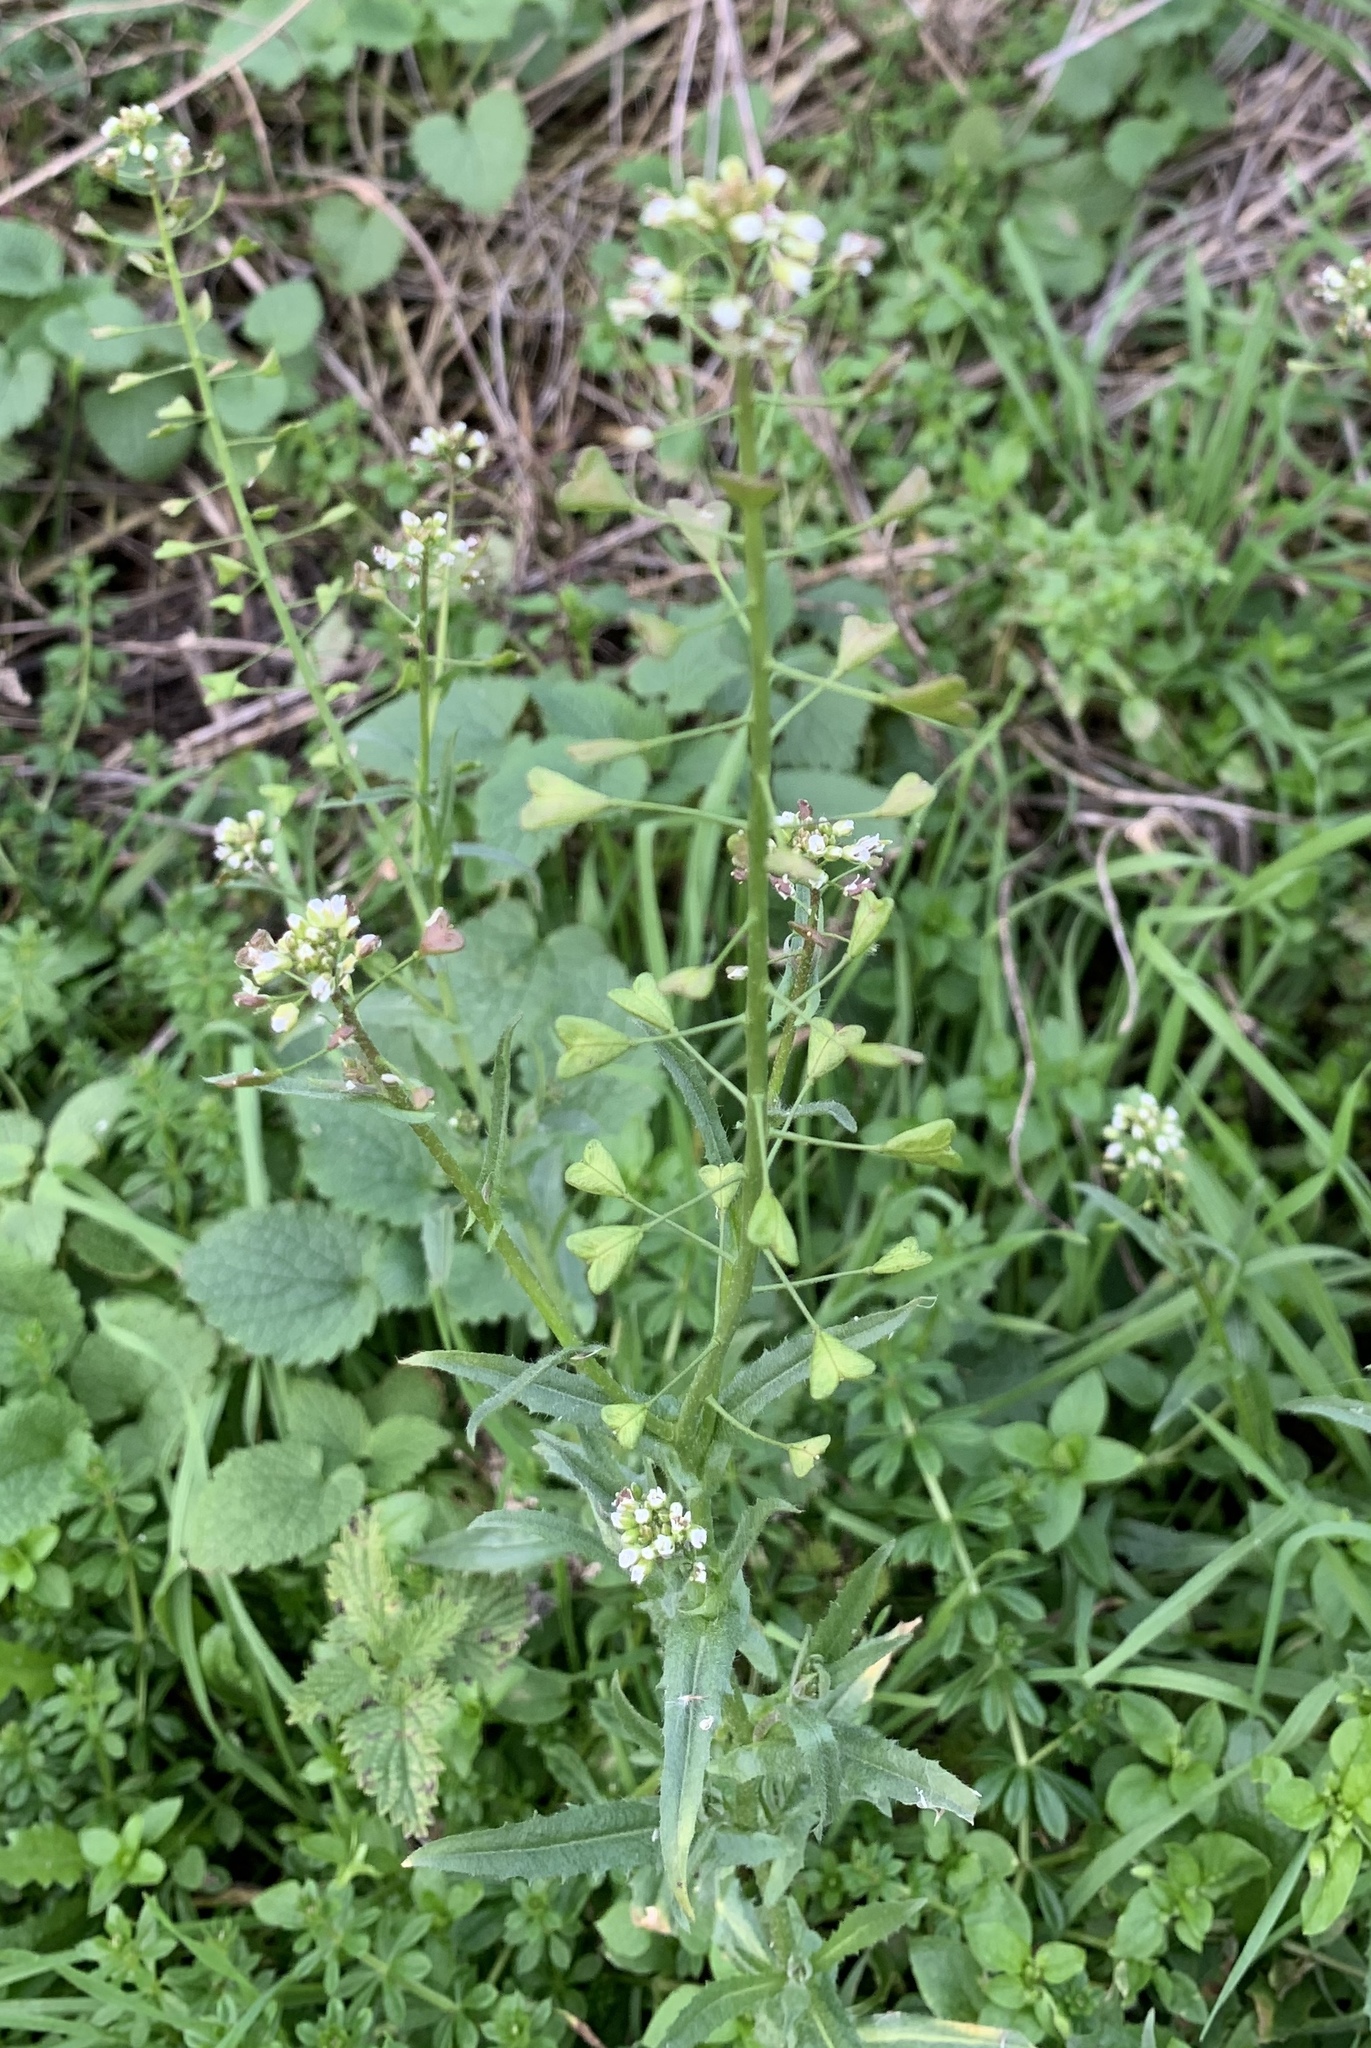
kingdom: Plantae
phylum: Tracheophyta
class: Magnoliopsida
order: Brassicales
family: Brassicaceae
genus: Capsella
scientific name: Capsella bursa-pastoris
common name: Shepherd's purse
